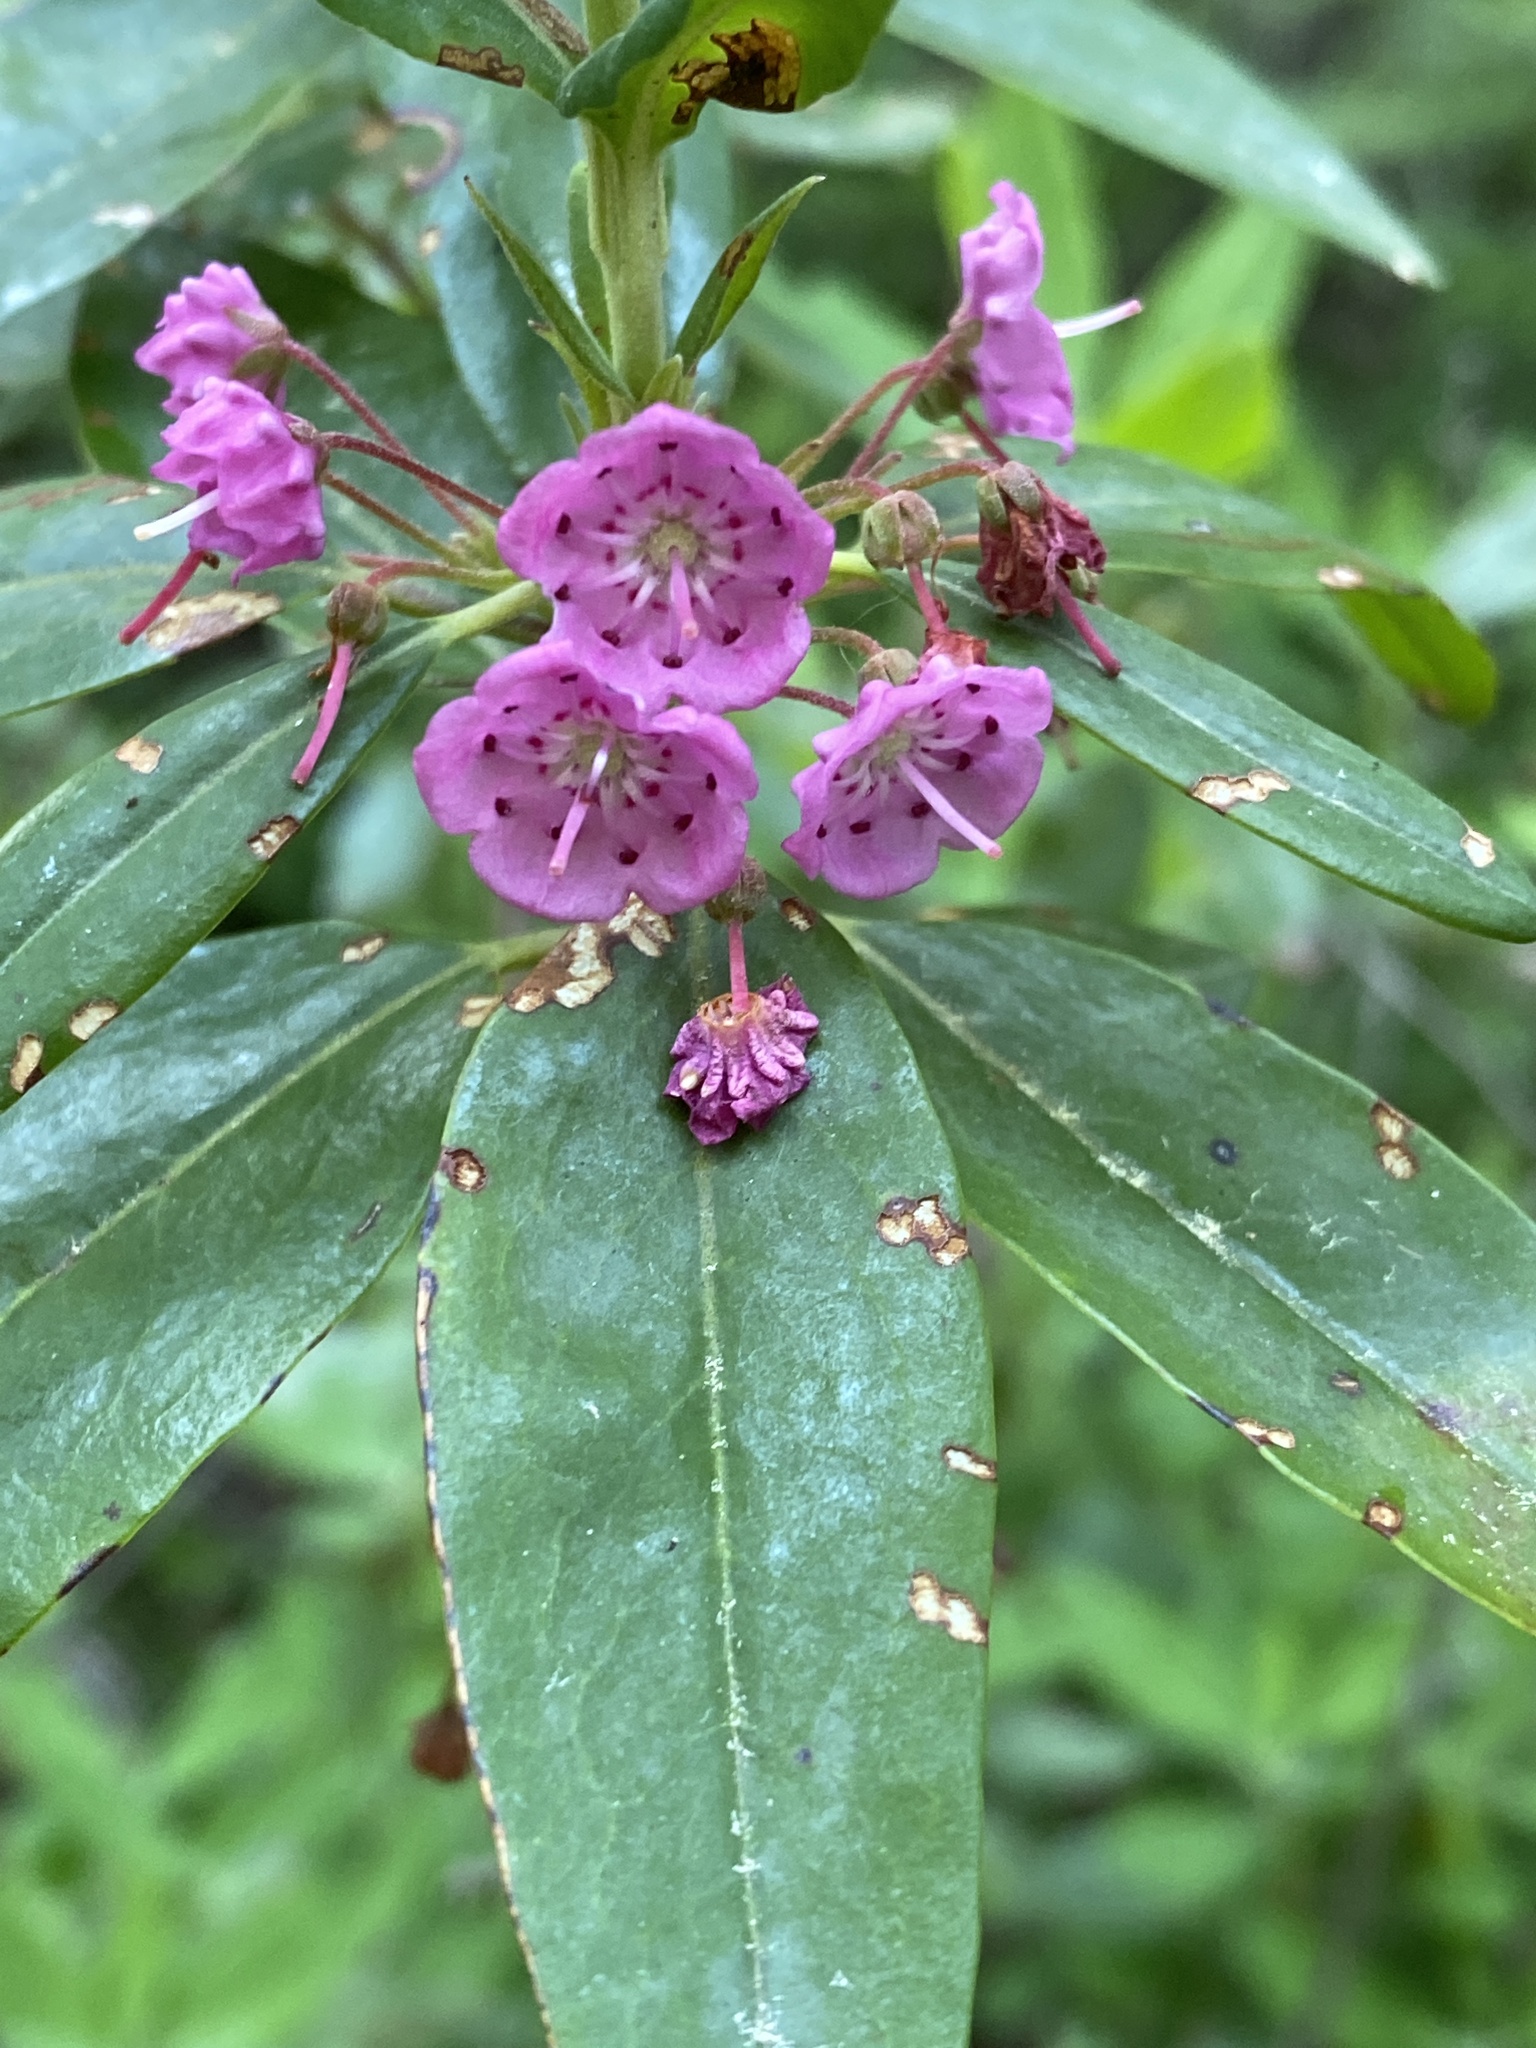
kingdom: Plantae
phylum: Tracheophyta
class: Magnoliopsida
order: Ericales
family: Ericaceae
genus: Kalmia
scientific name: Kalmia angustifolia
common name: Sheep-laurel
